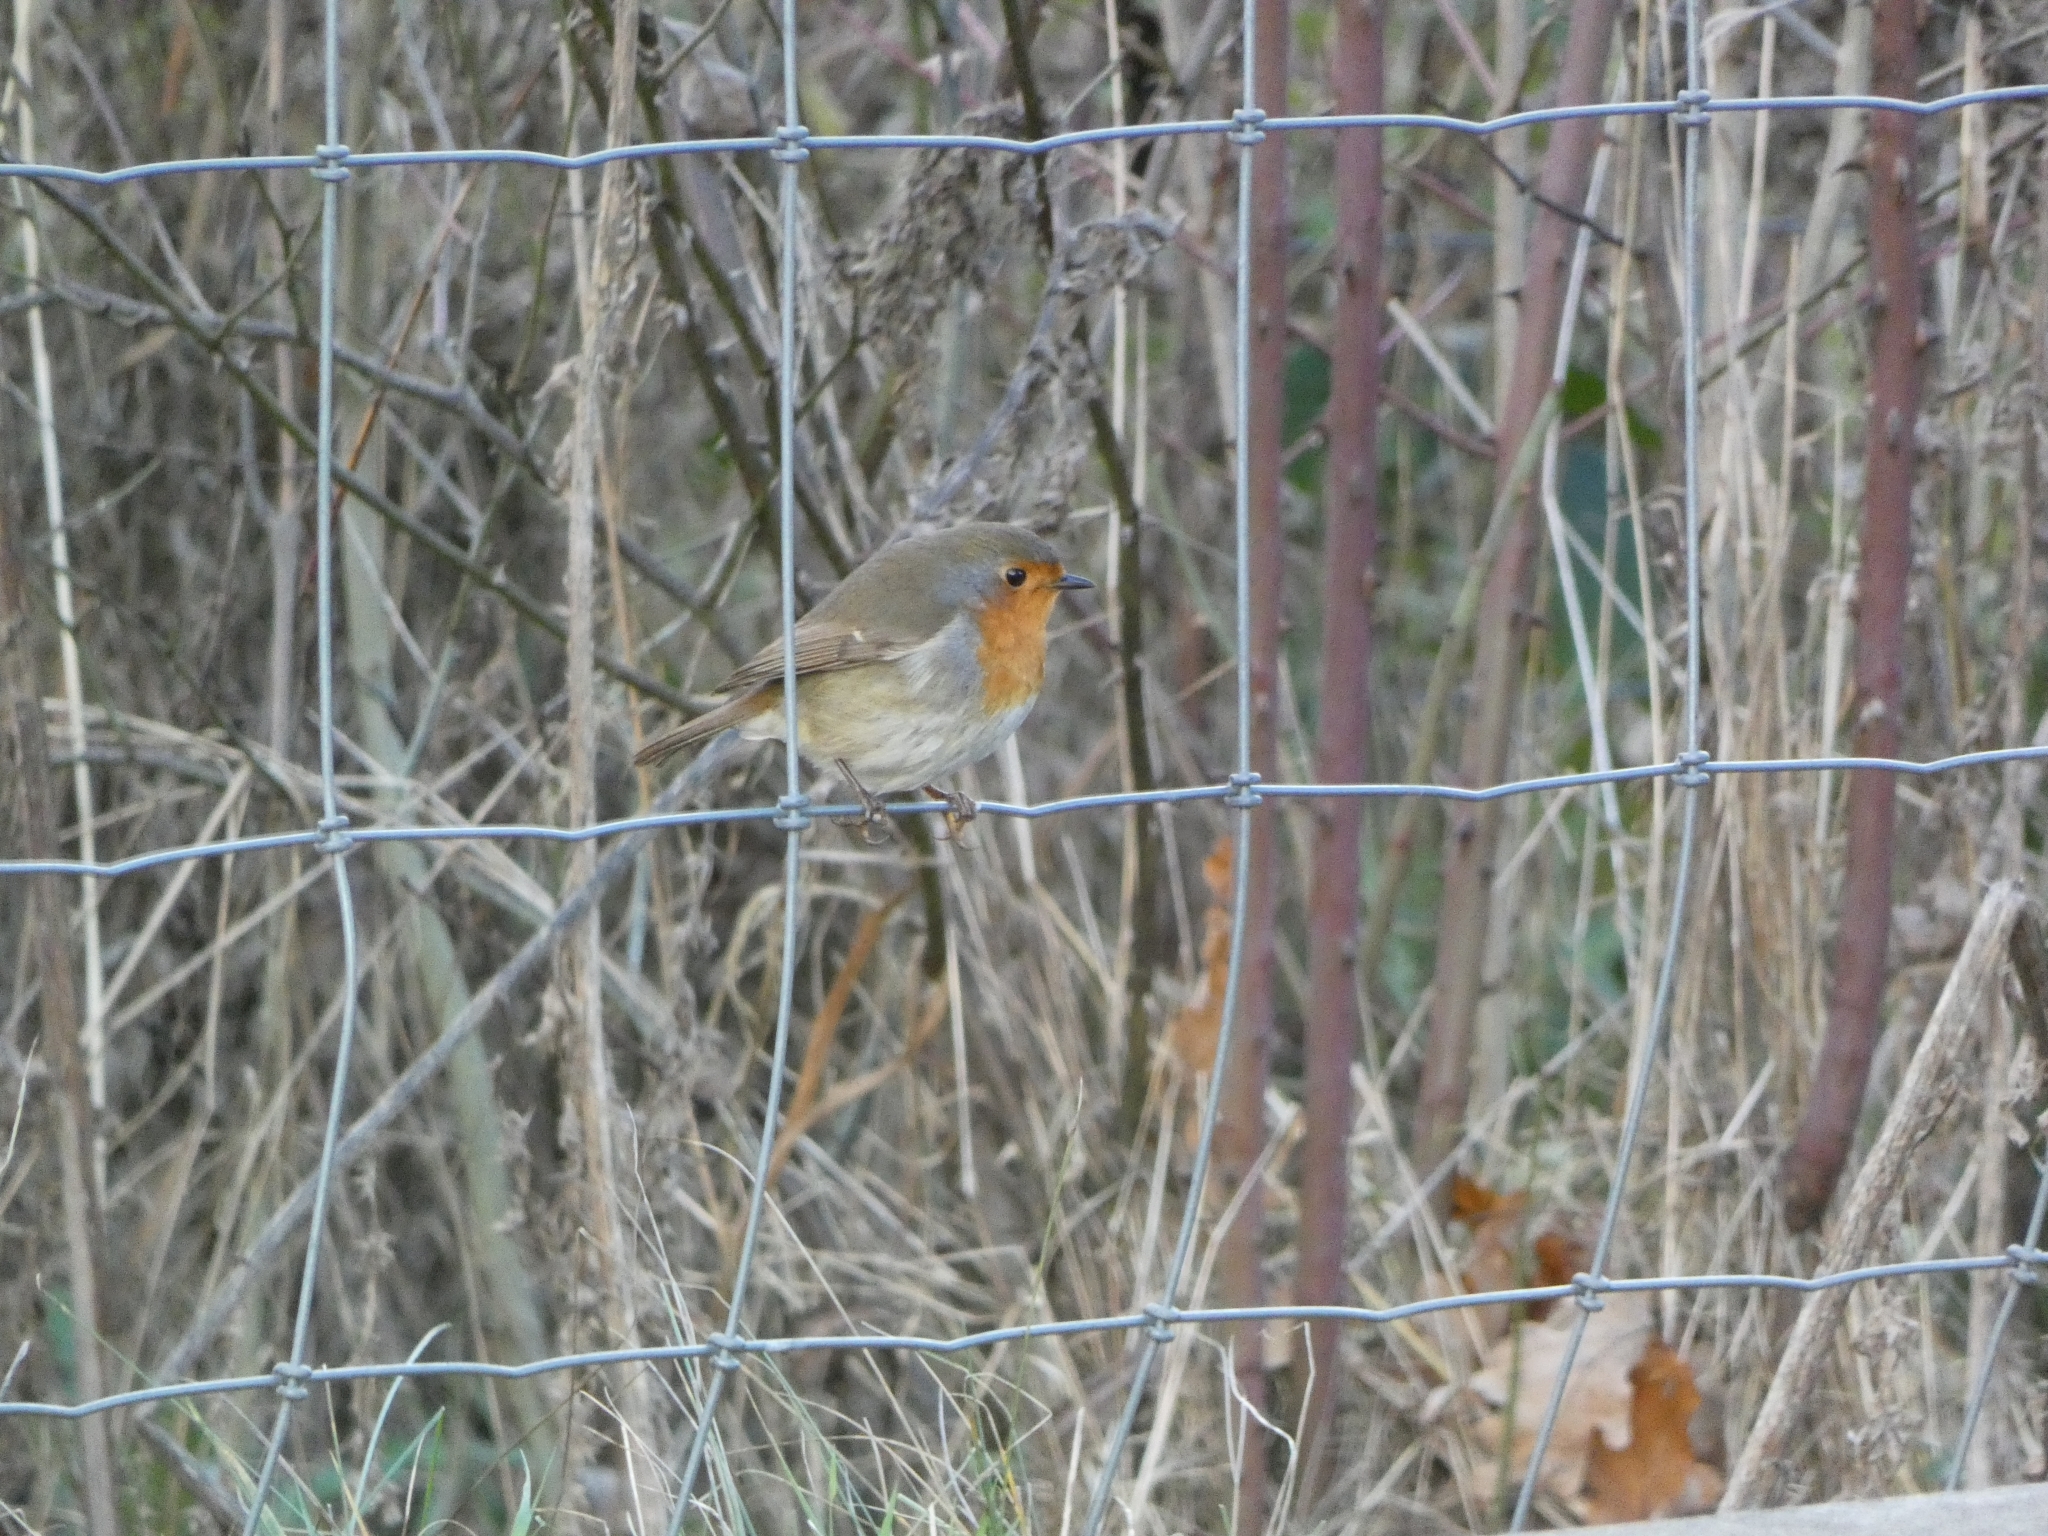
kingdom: Animalia
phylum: Chordata
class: Aves
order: Passeriformes
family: Muscicapidae
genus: Erithacus
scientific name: Erithacus rubecula
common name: European robin
